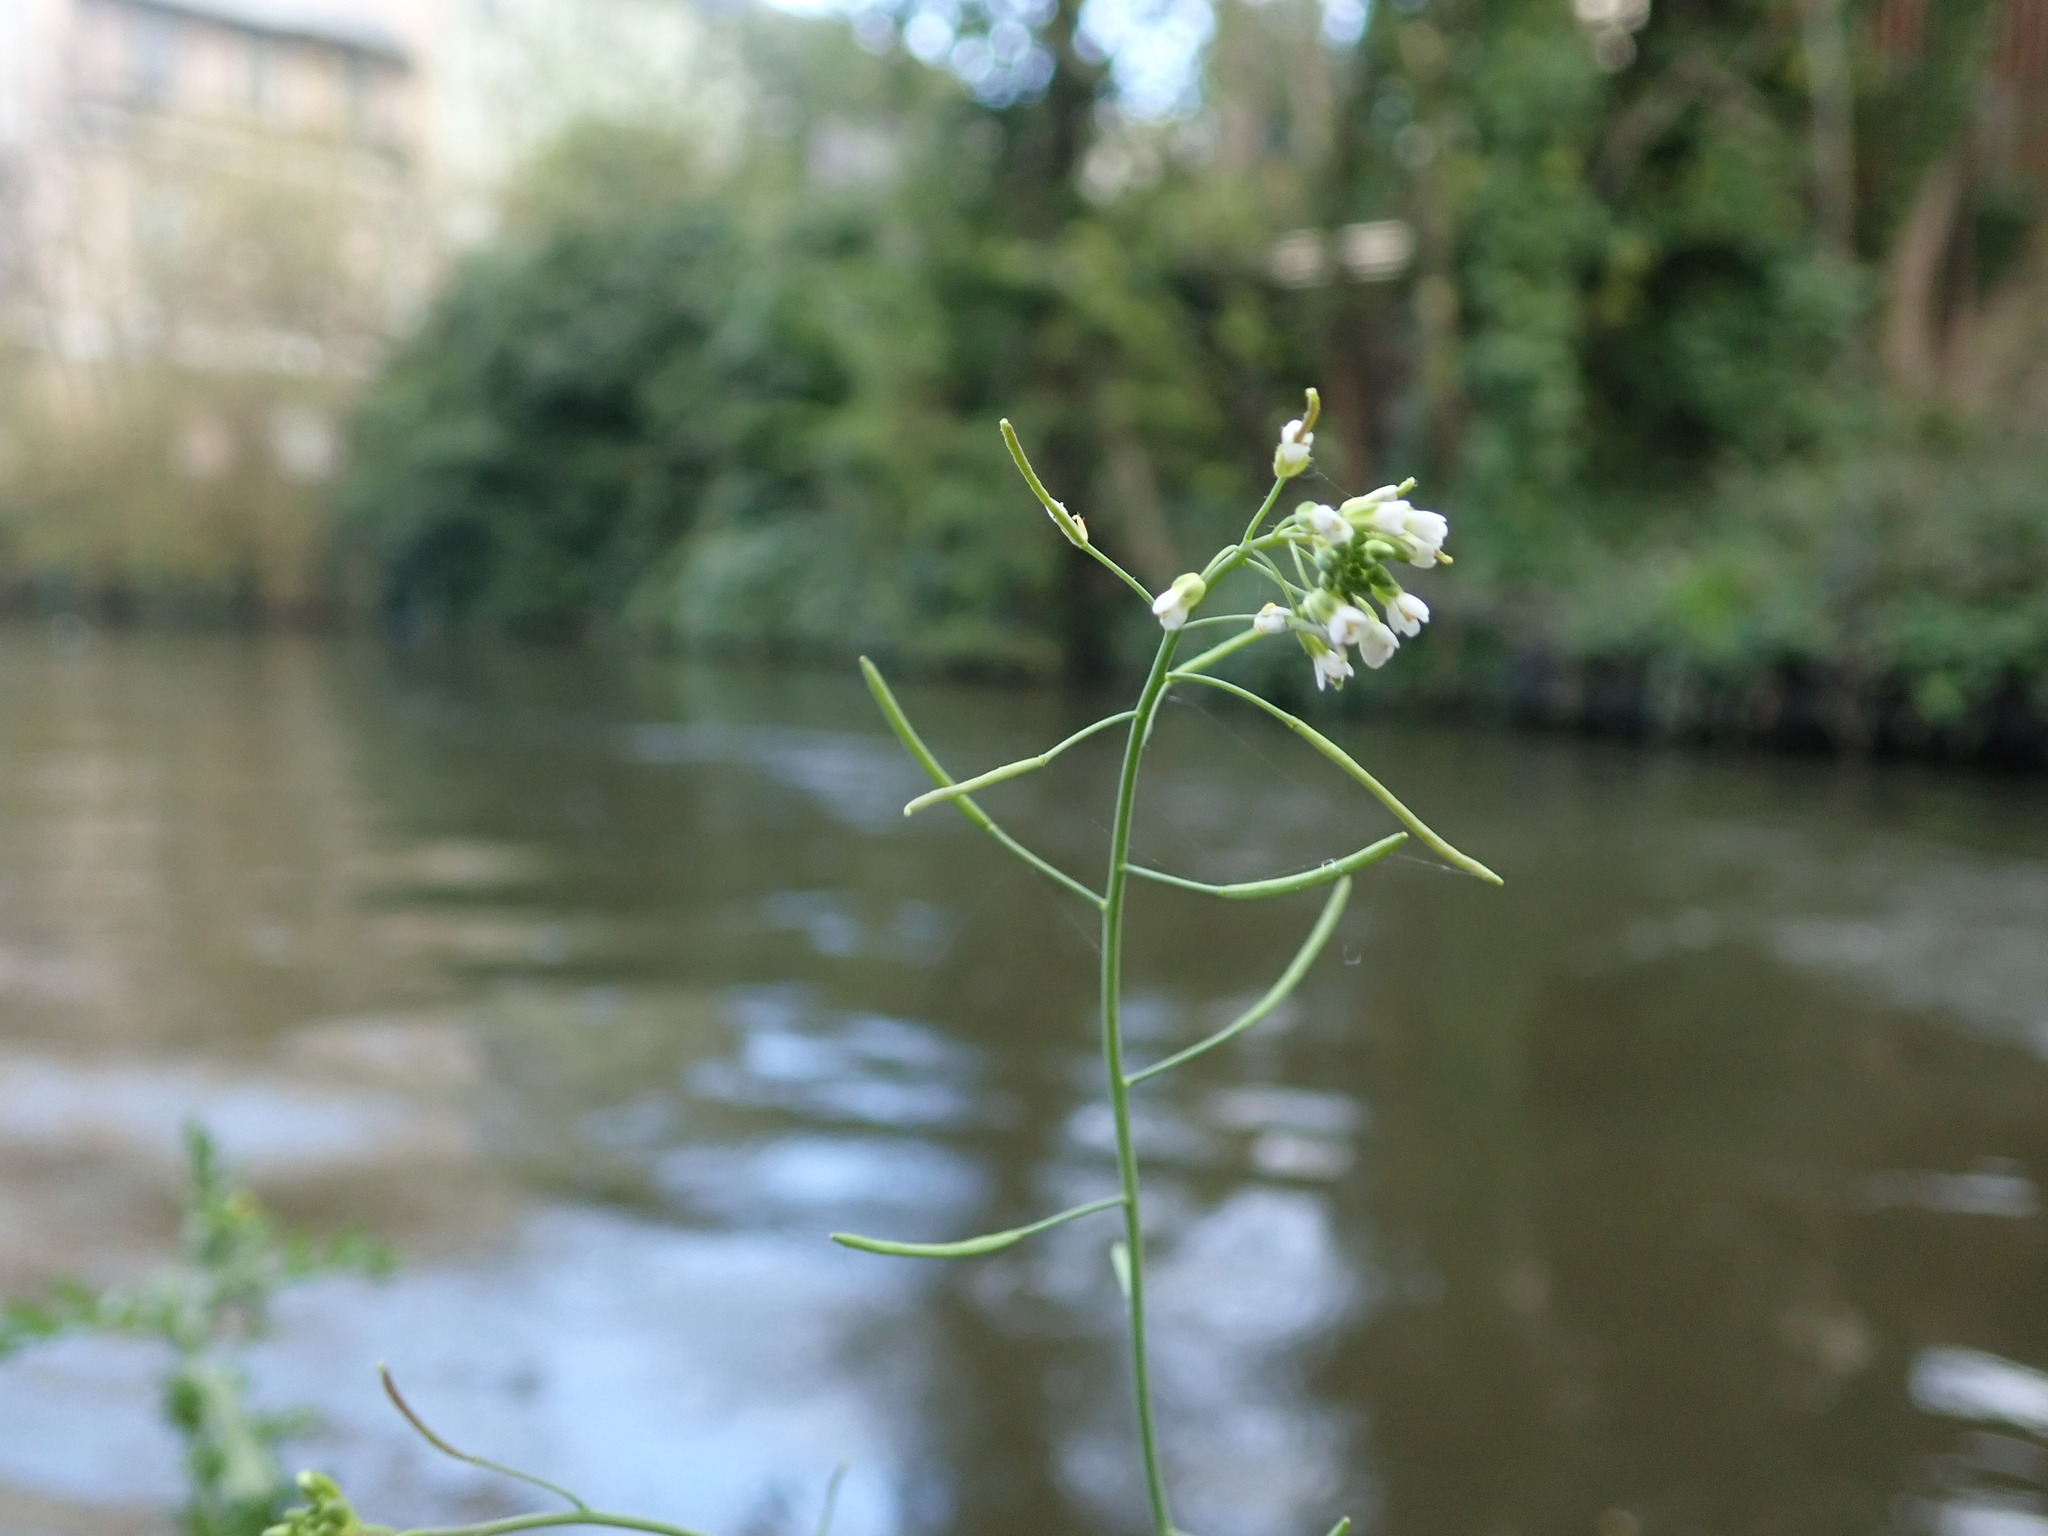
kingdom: Plantae
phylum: Tracheophyta
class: Magnoliopsida
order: Brassicales
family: Brassicaceae
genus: Arabidopsis
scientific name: Arabidopsis thaliana
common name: Thale cress
